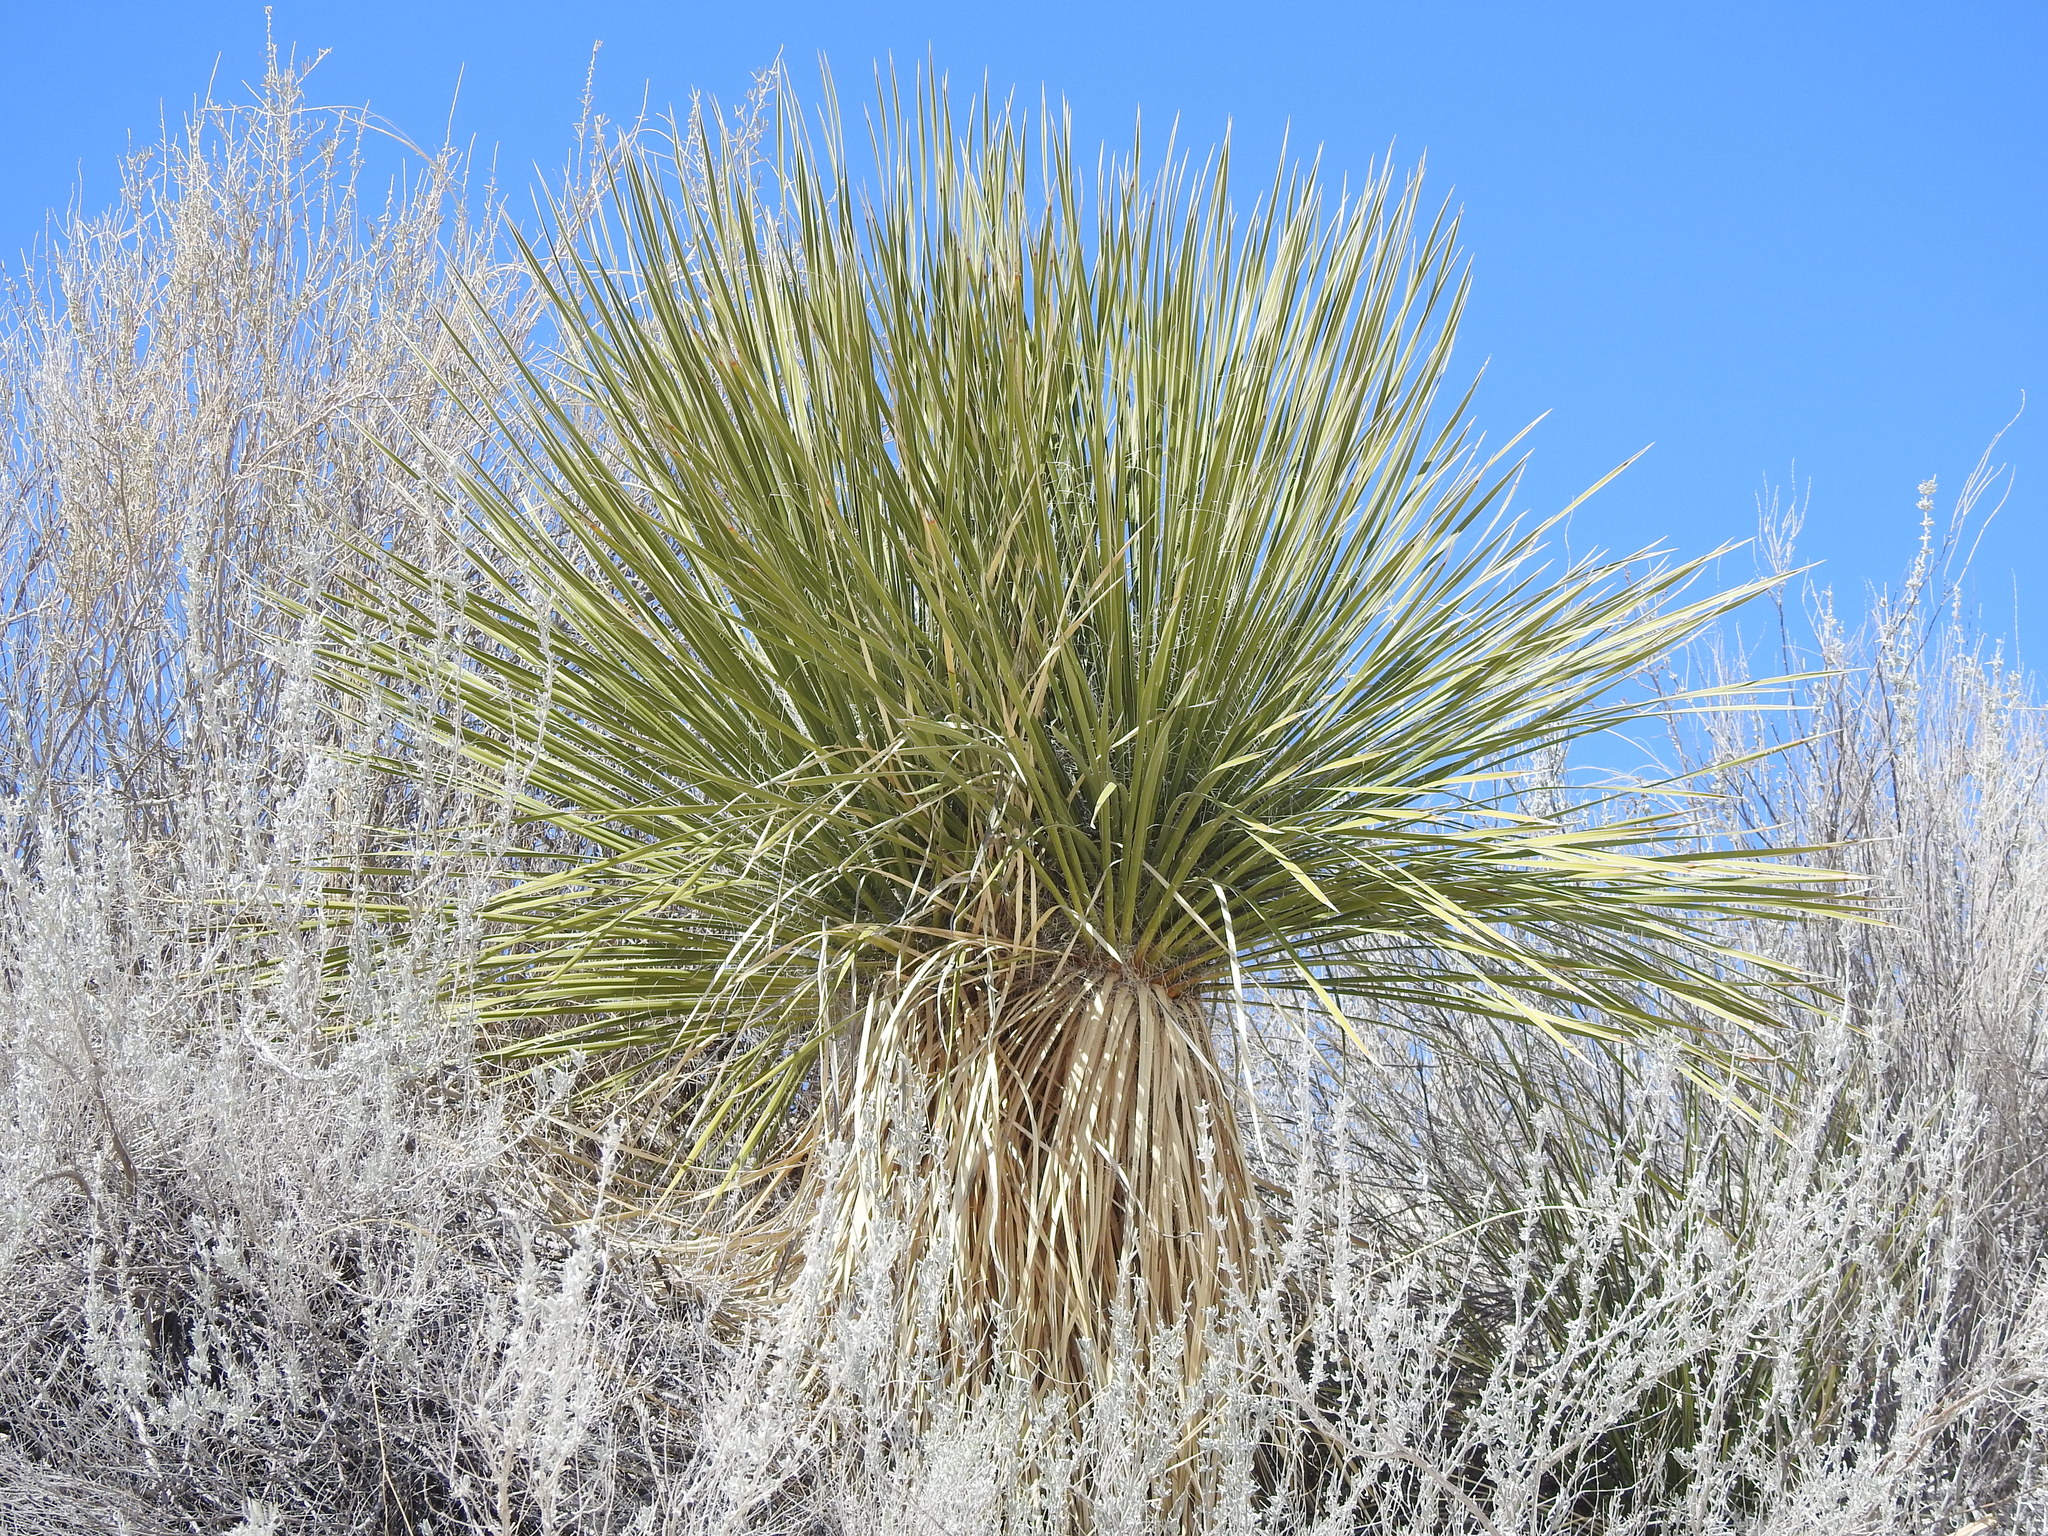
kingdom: Plantae
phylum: Tracheophyta
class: Liliopsida
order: Asparagales
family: Asparagaceae
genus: Yucca
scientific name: Yucca elata
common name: Palmella
